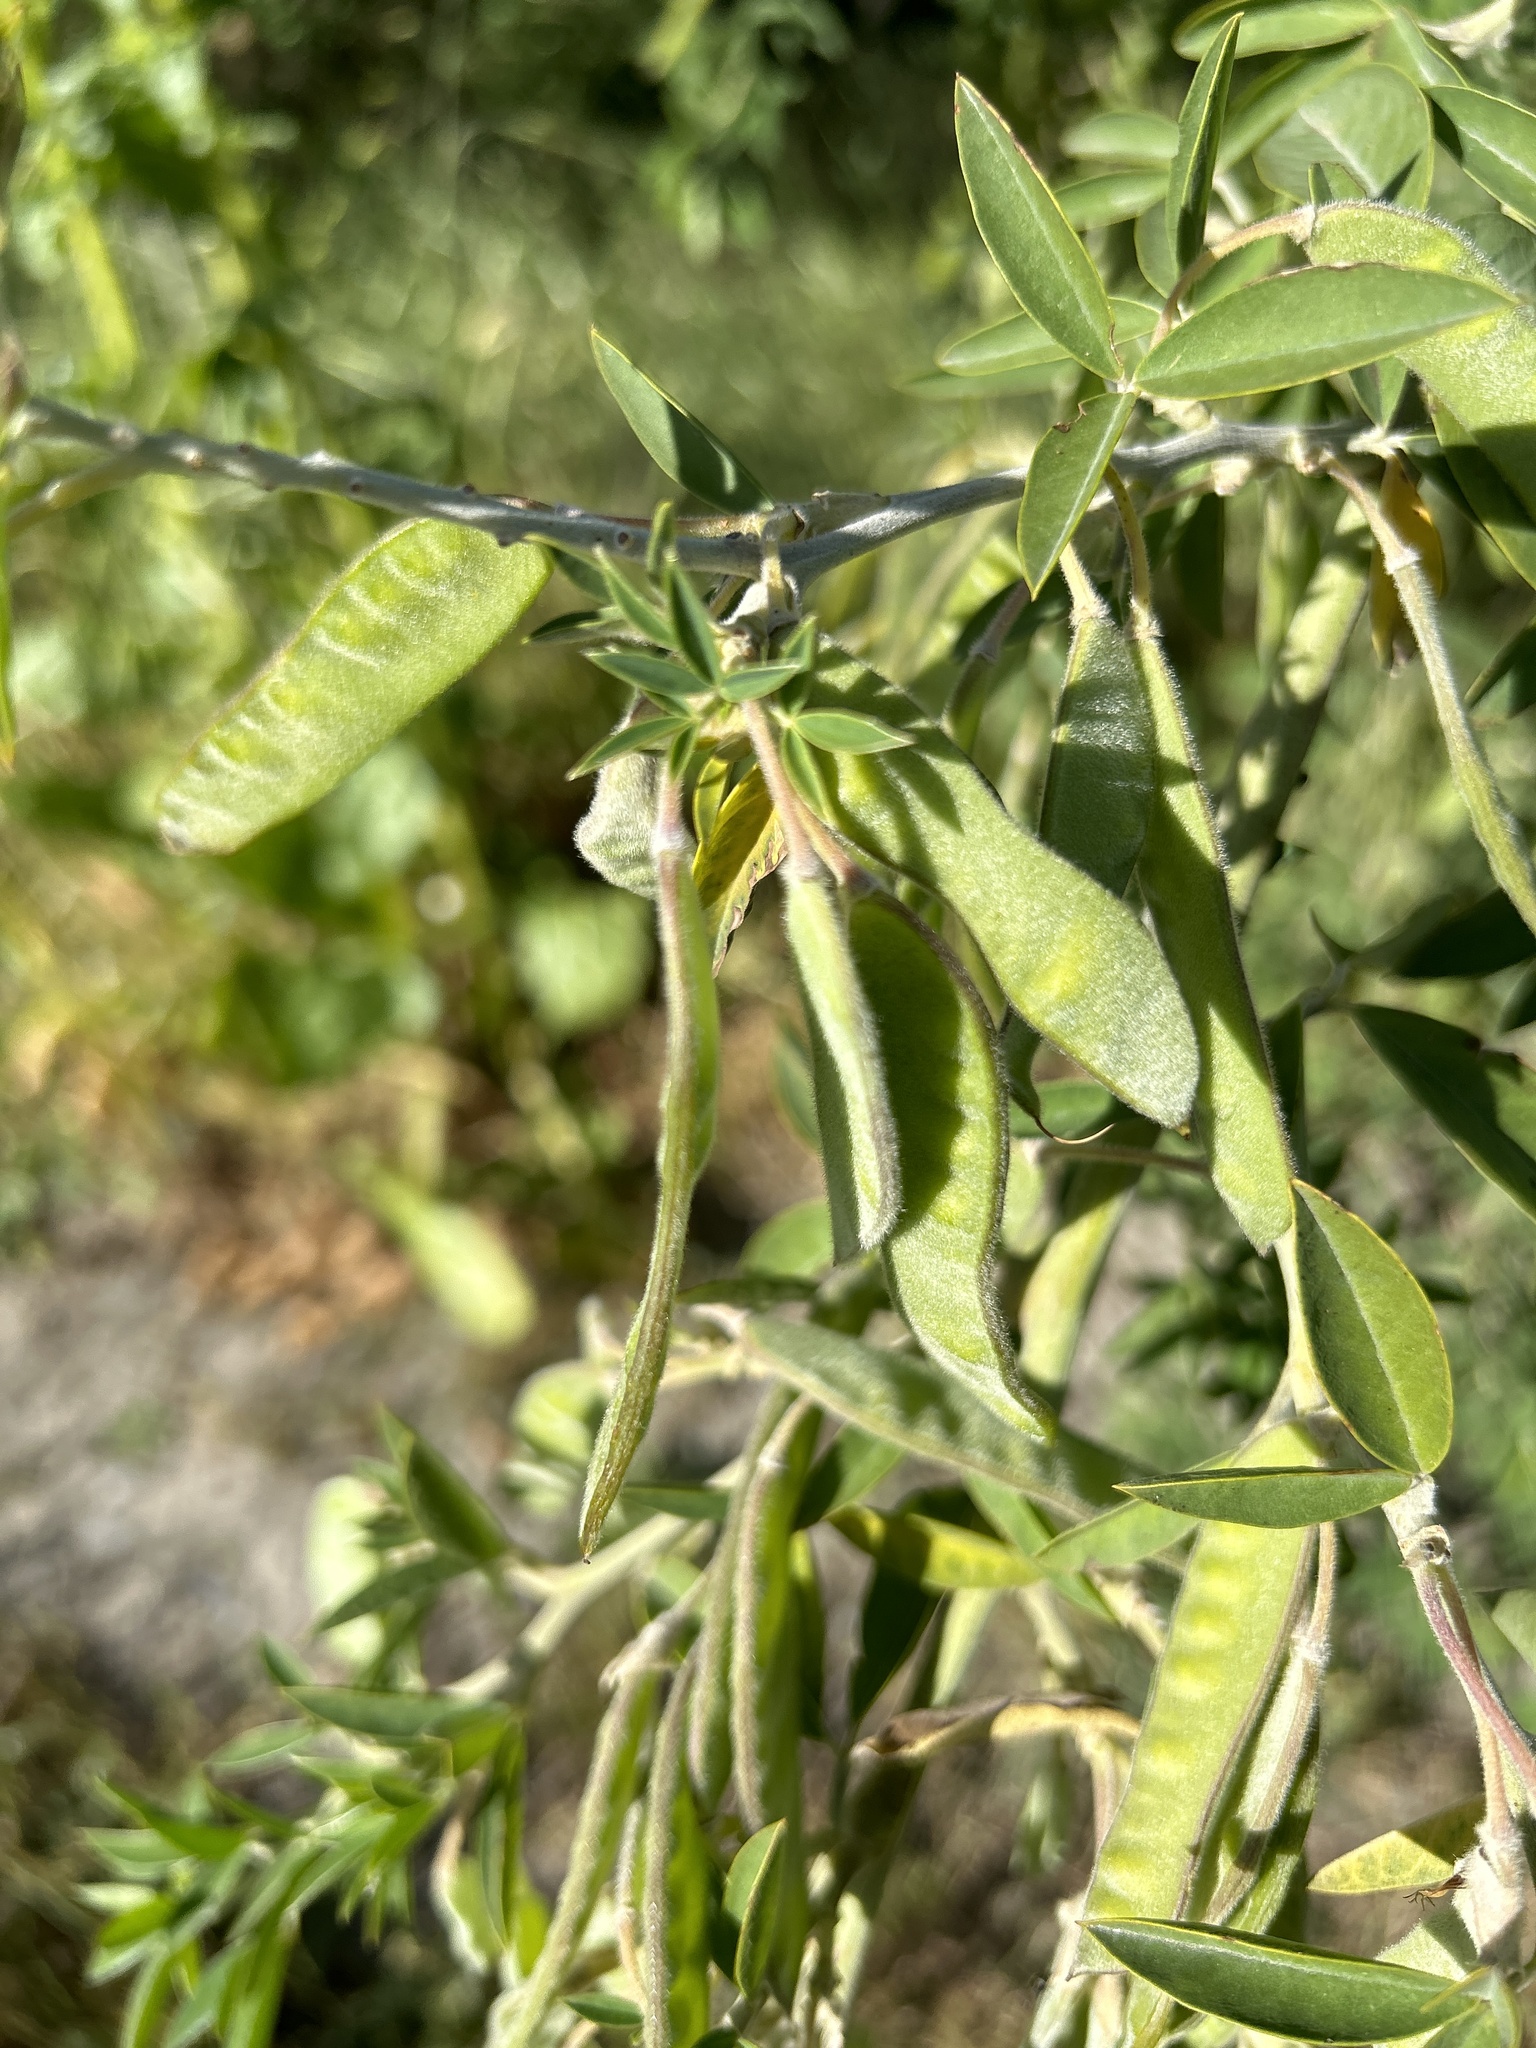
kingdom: Plantae
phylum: Tracheophyta
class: Magnoliopsida
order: Fabales
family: Fabaceae
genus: Chamaecytisus
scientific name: Chamaecytisus prolifer
